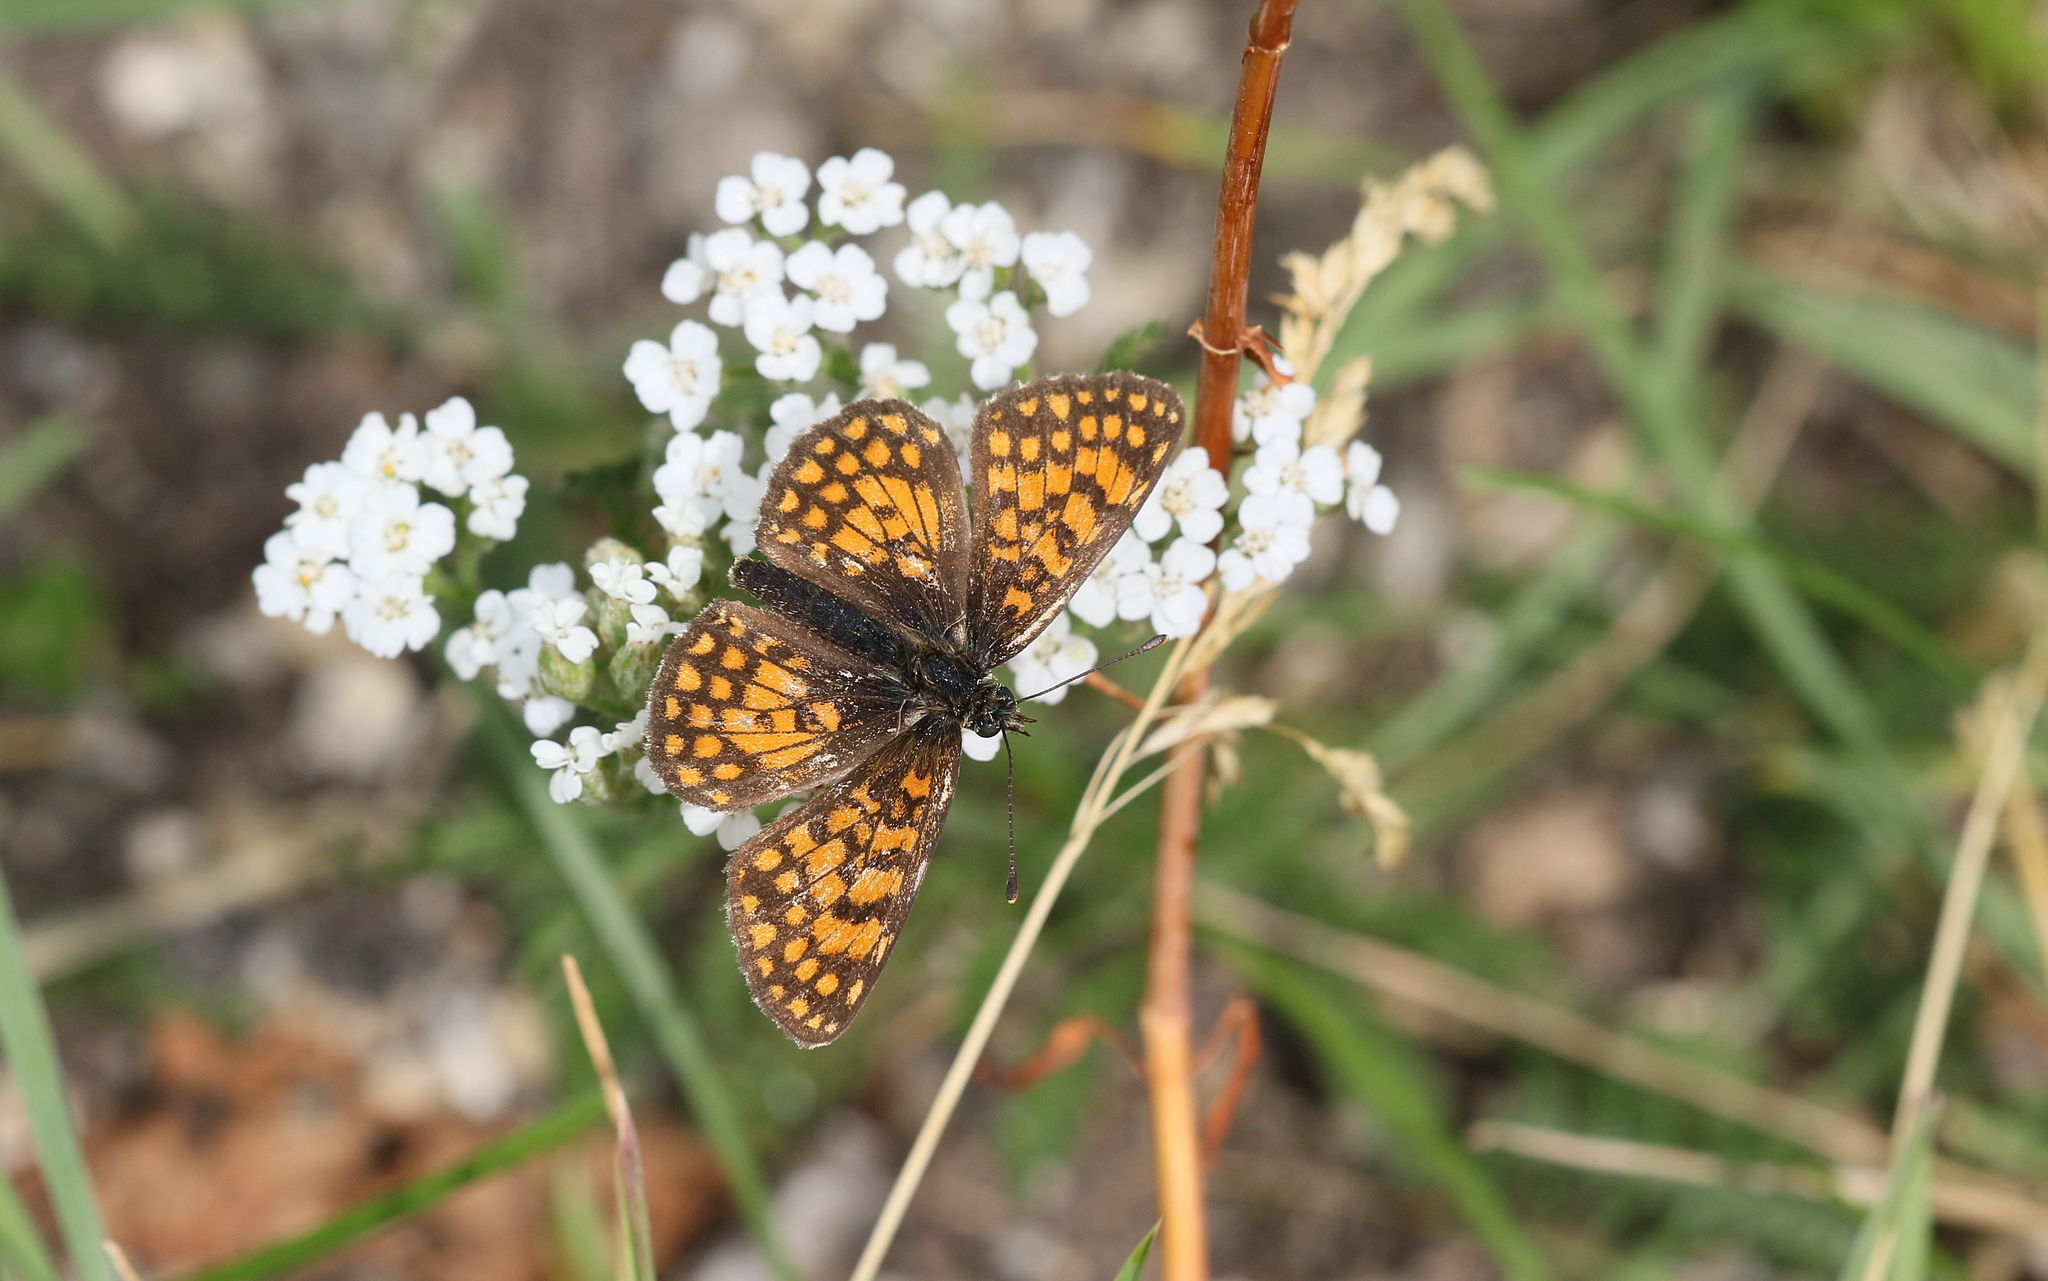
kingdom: Animalia
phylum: Arthropoda
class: Insecta
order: Lepidoptera
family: Nymphalidae
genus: Mellicta
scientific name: Mellicta athalia
